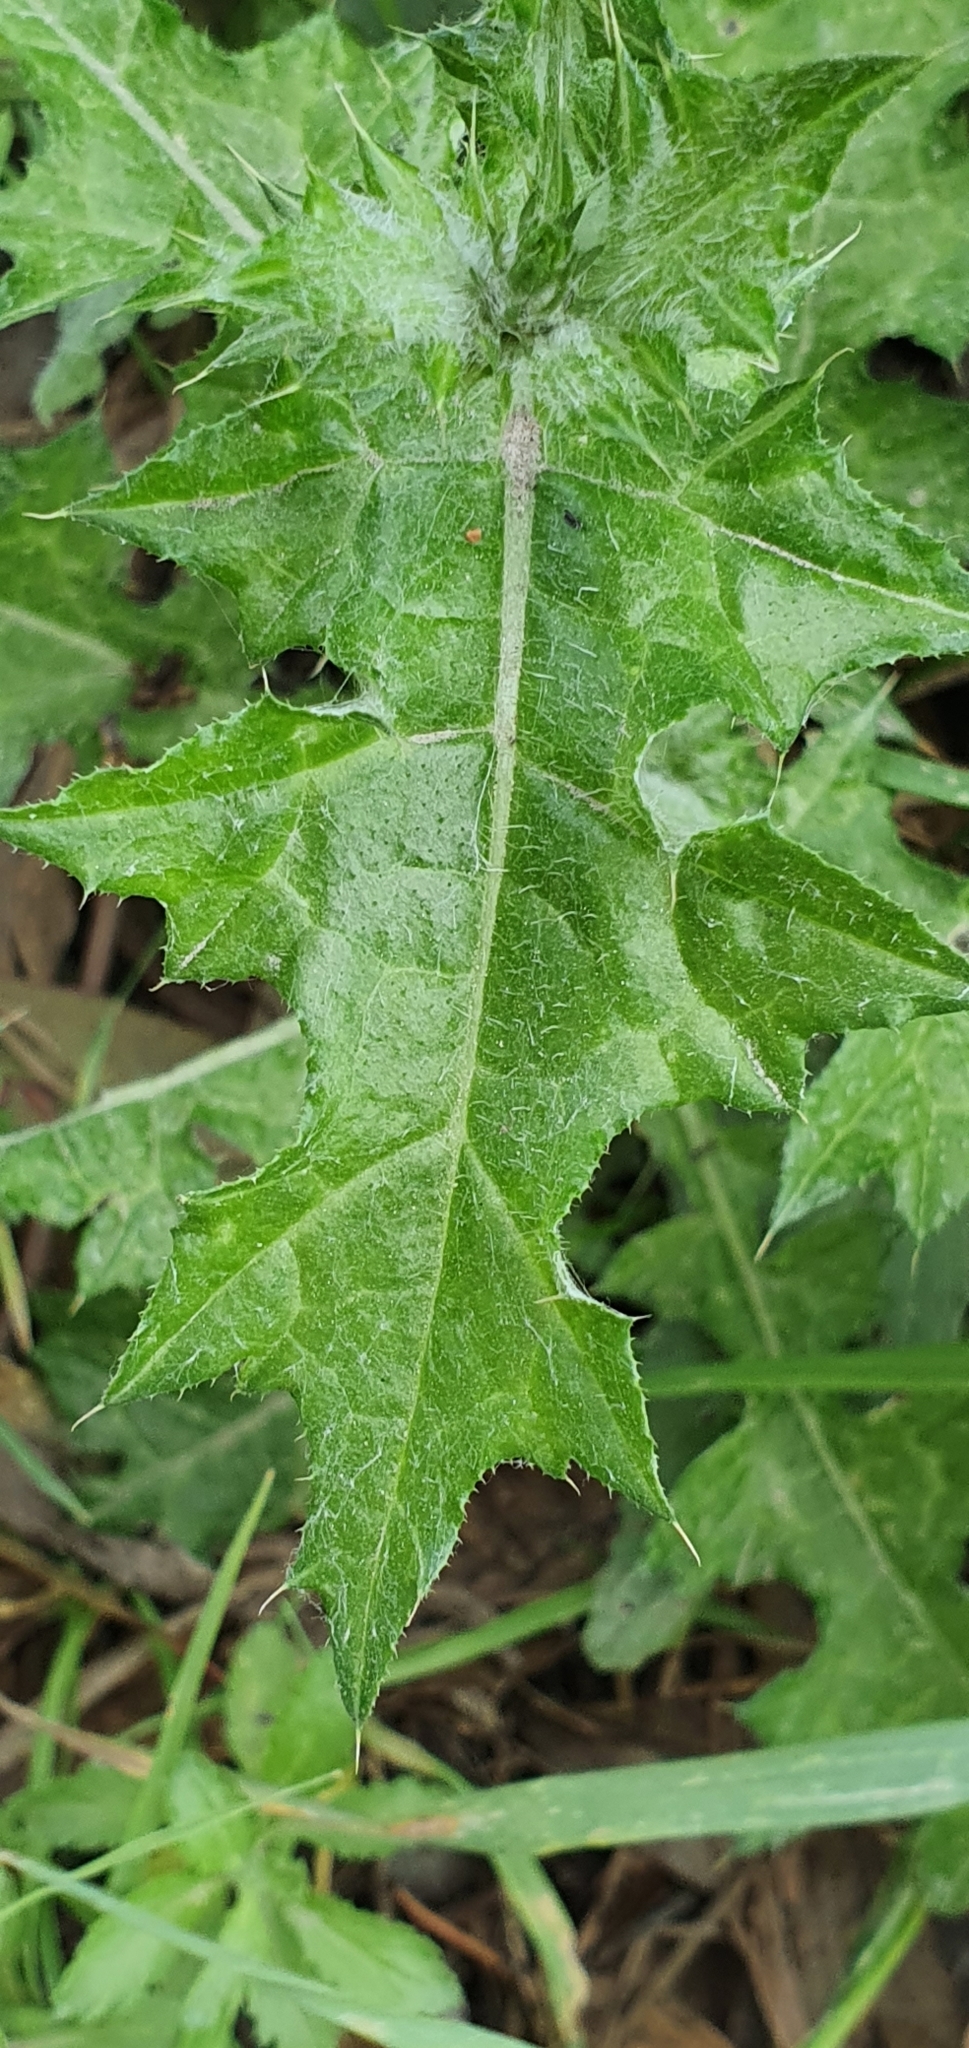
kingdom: Plantae
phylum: Tracheophyta
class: Magnoliopsida
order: Asterales
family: Asteraceae
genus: Carduus
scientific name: Carduus pycnocephalus
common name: Plymouth thistle
